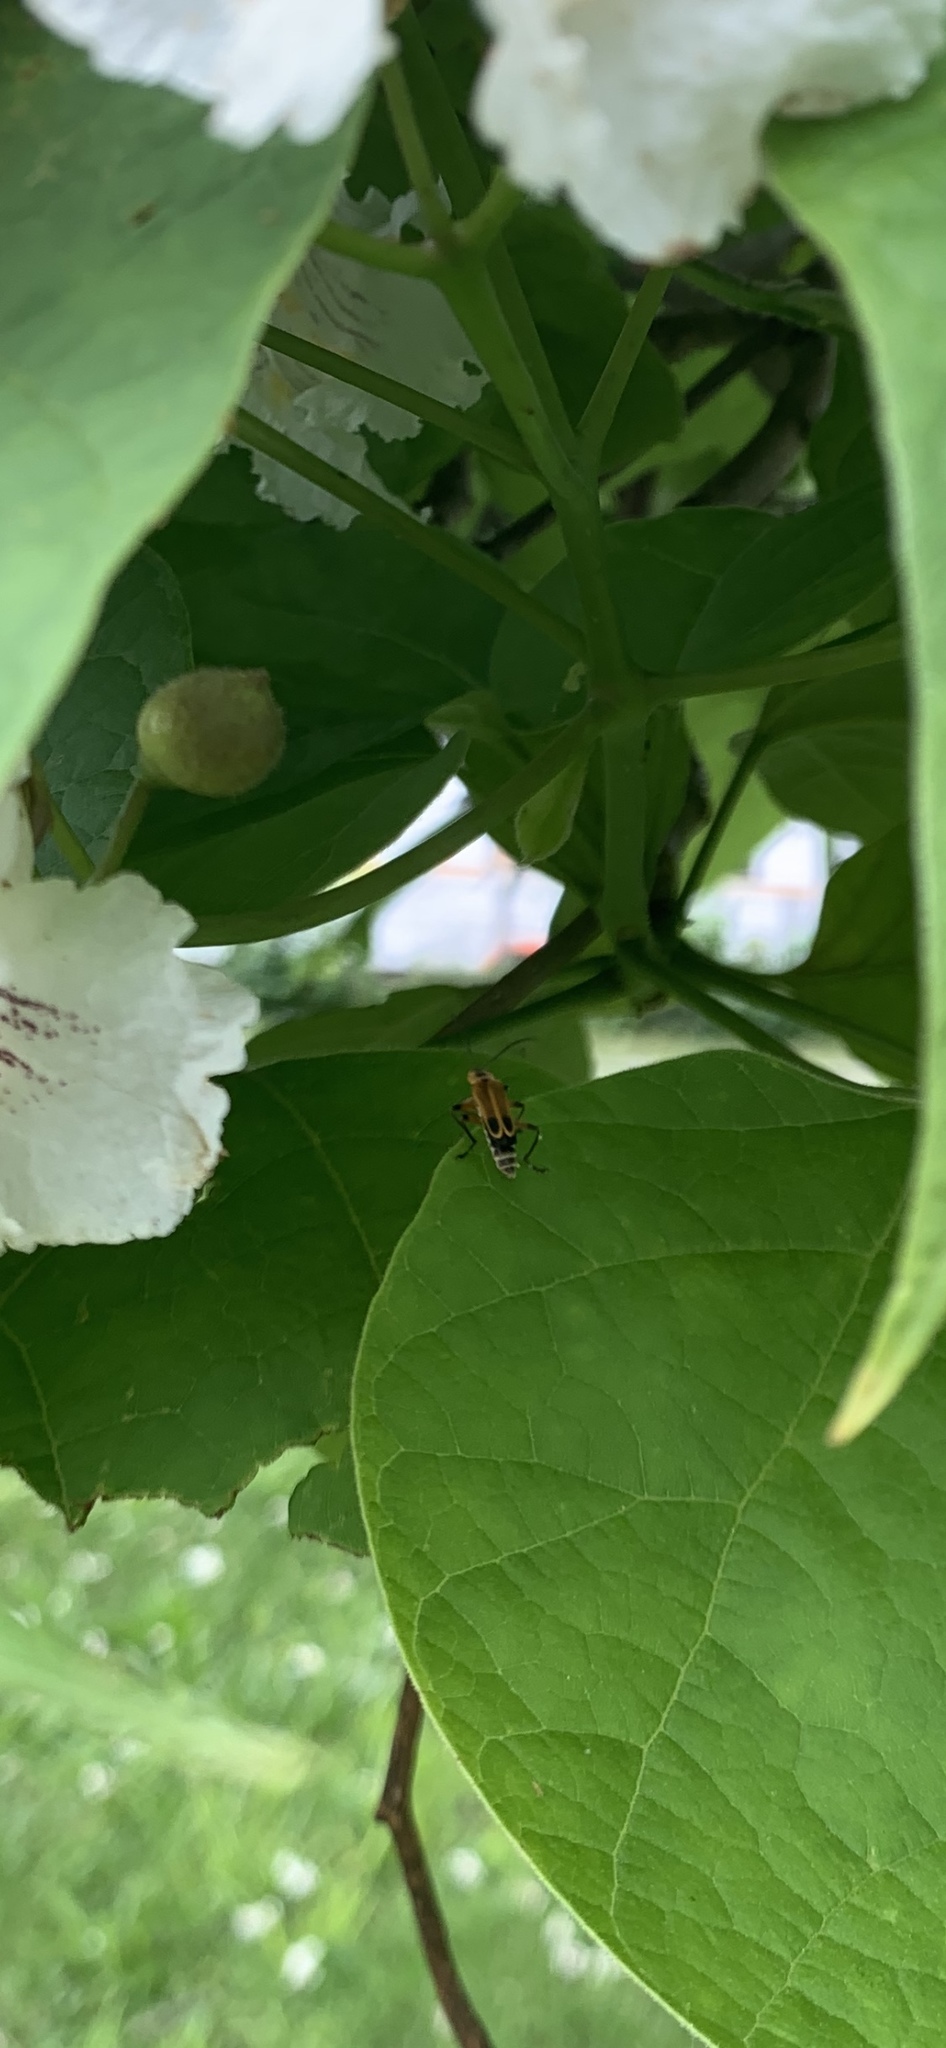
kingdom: Animalia
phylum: Arthropoda
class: Insecta
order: Coleoptera
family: Cantharidae
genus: Chauliognathus
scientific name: Chauliognathus marginatus
